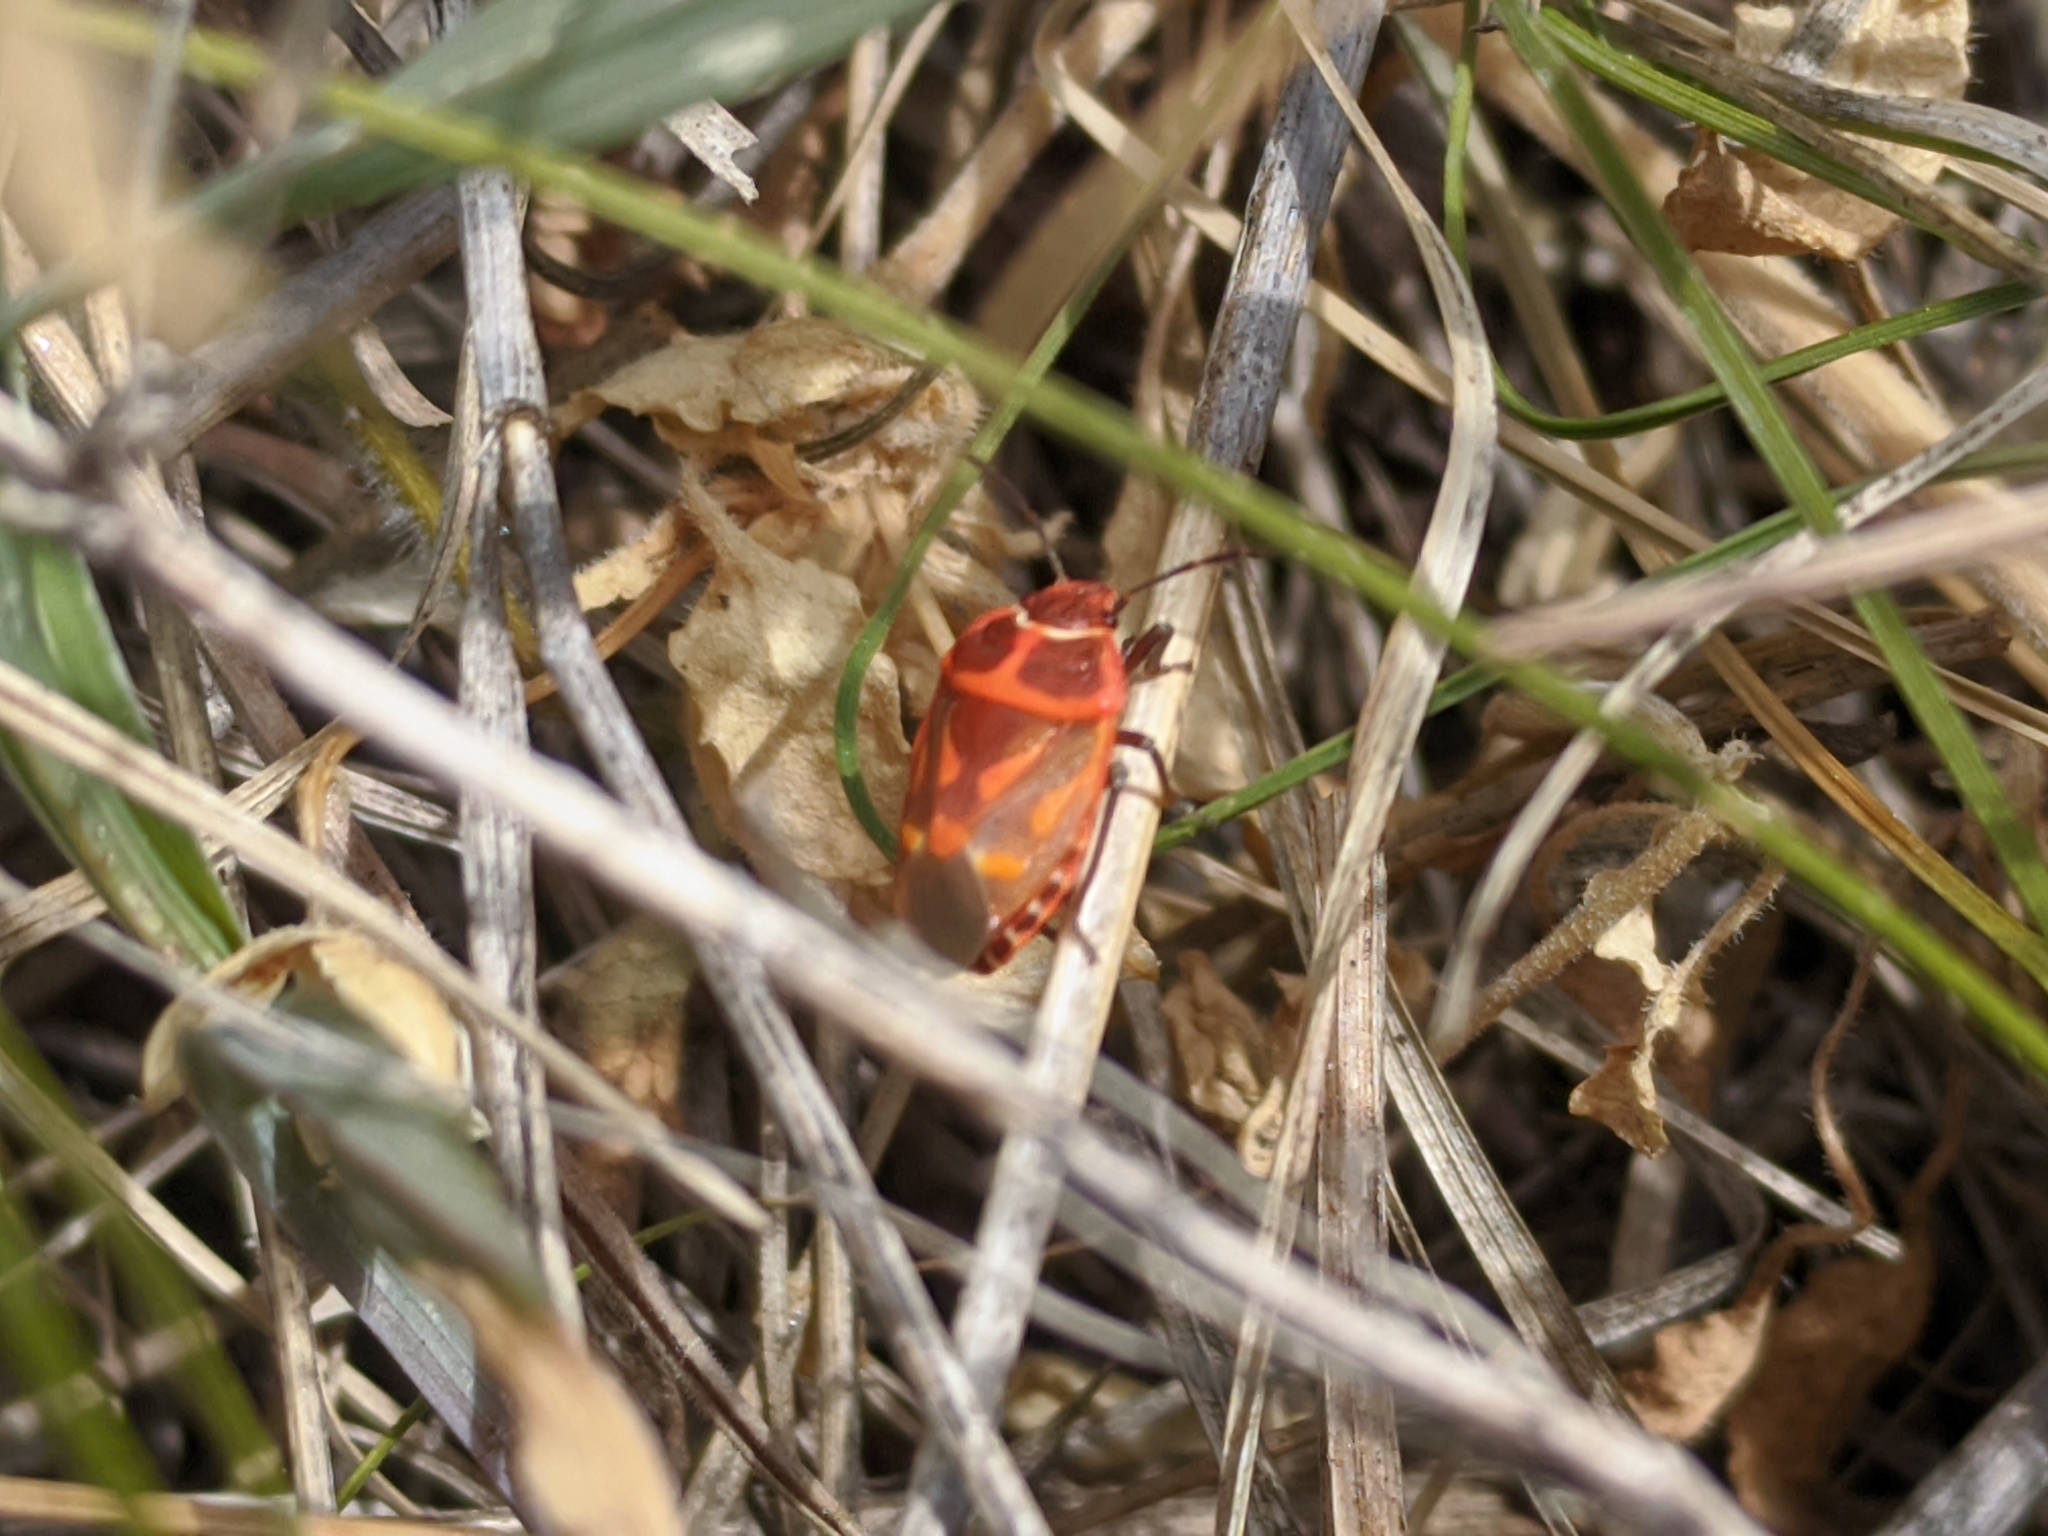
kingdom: Animalia
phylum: Arthropoda
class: Insecta
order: Hemiptera
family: Pentatomidae
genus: Eurydema
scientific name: Eurydema fieberi
